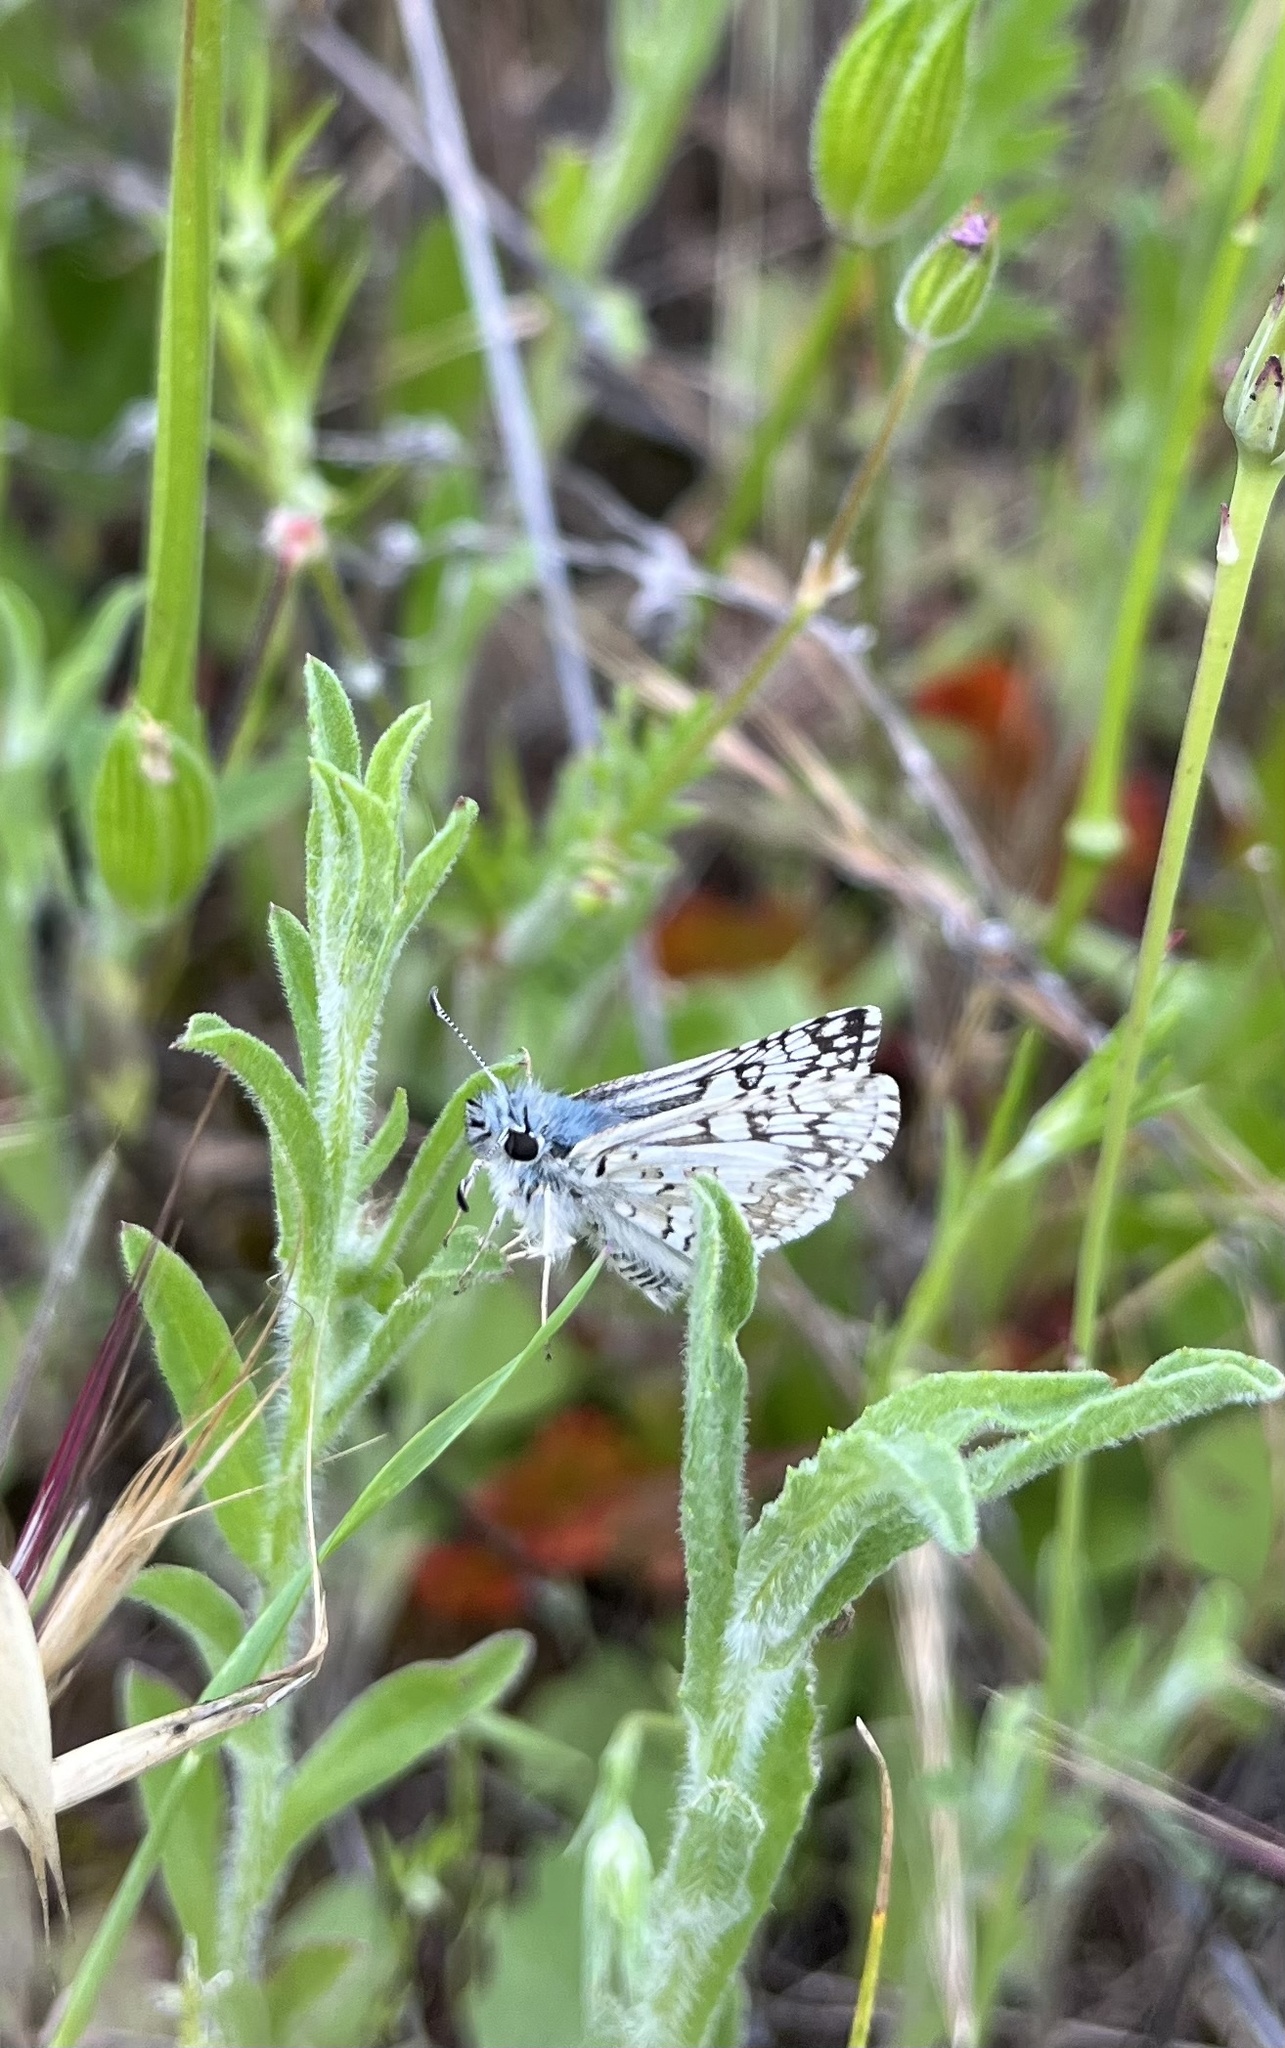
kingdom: Animalia
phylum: Arthropoda
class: Insecta
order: Lepidoptera
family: Hesperiidae
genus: Burnsius
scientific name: Burnsius albezens
